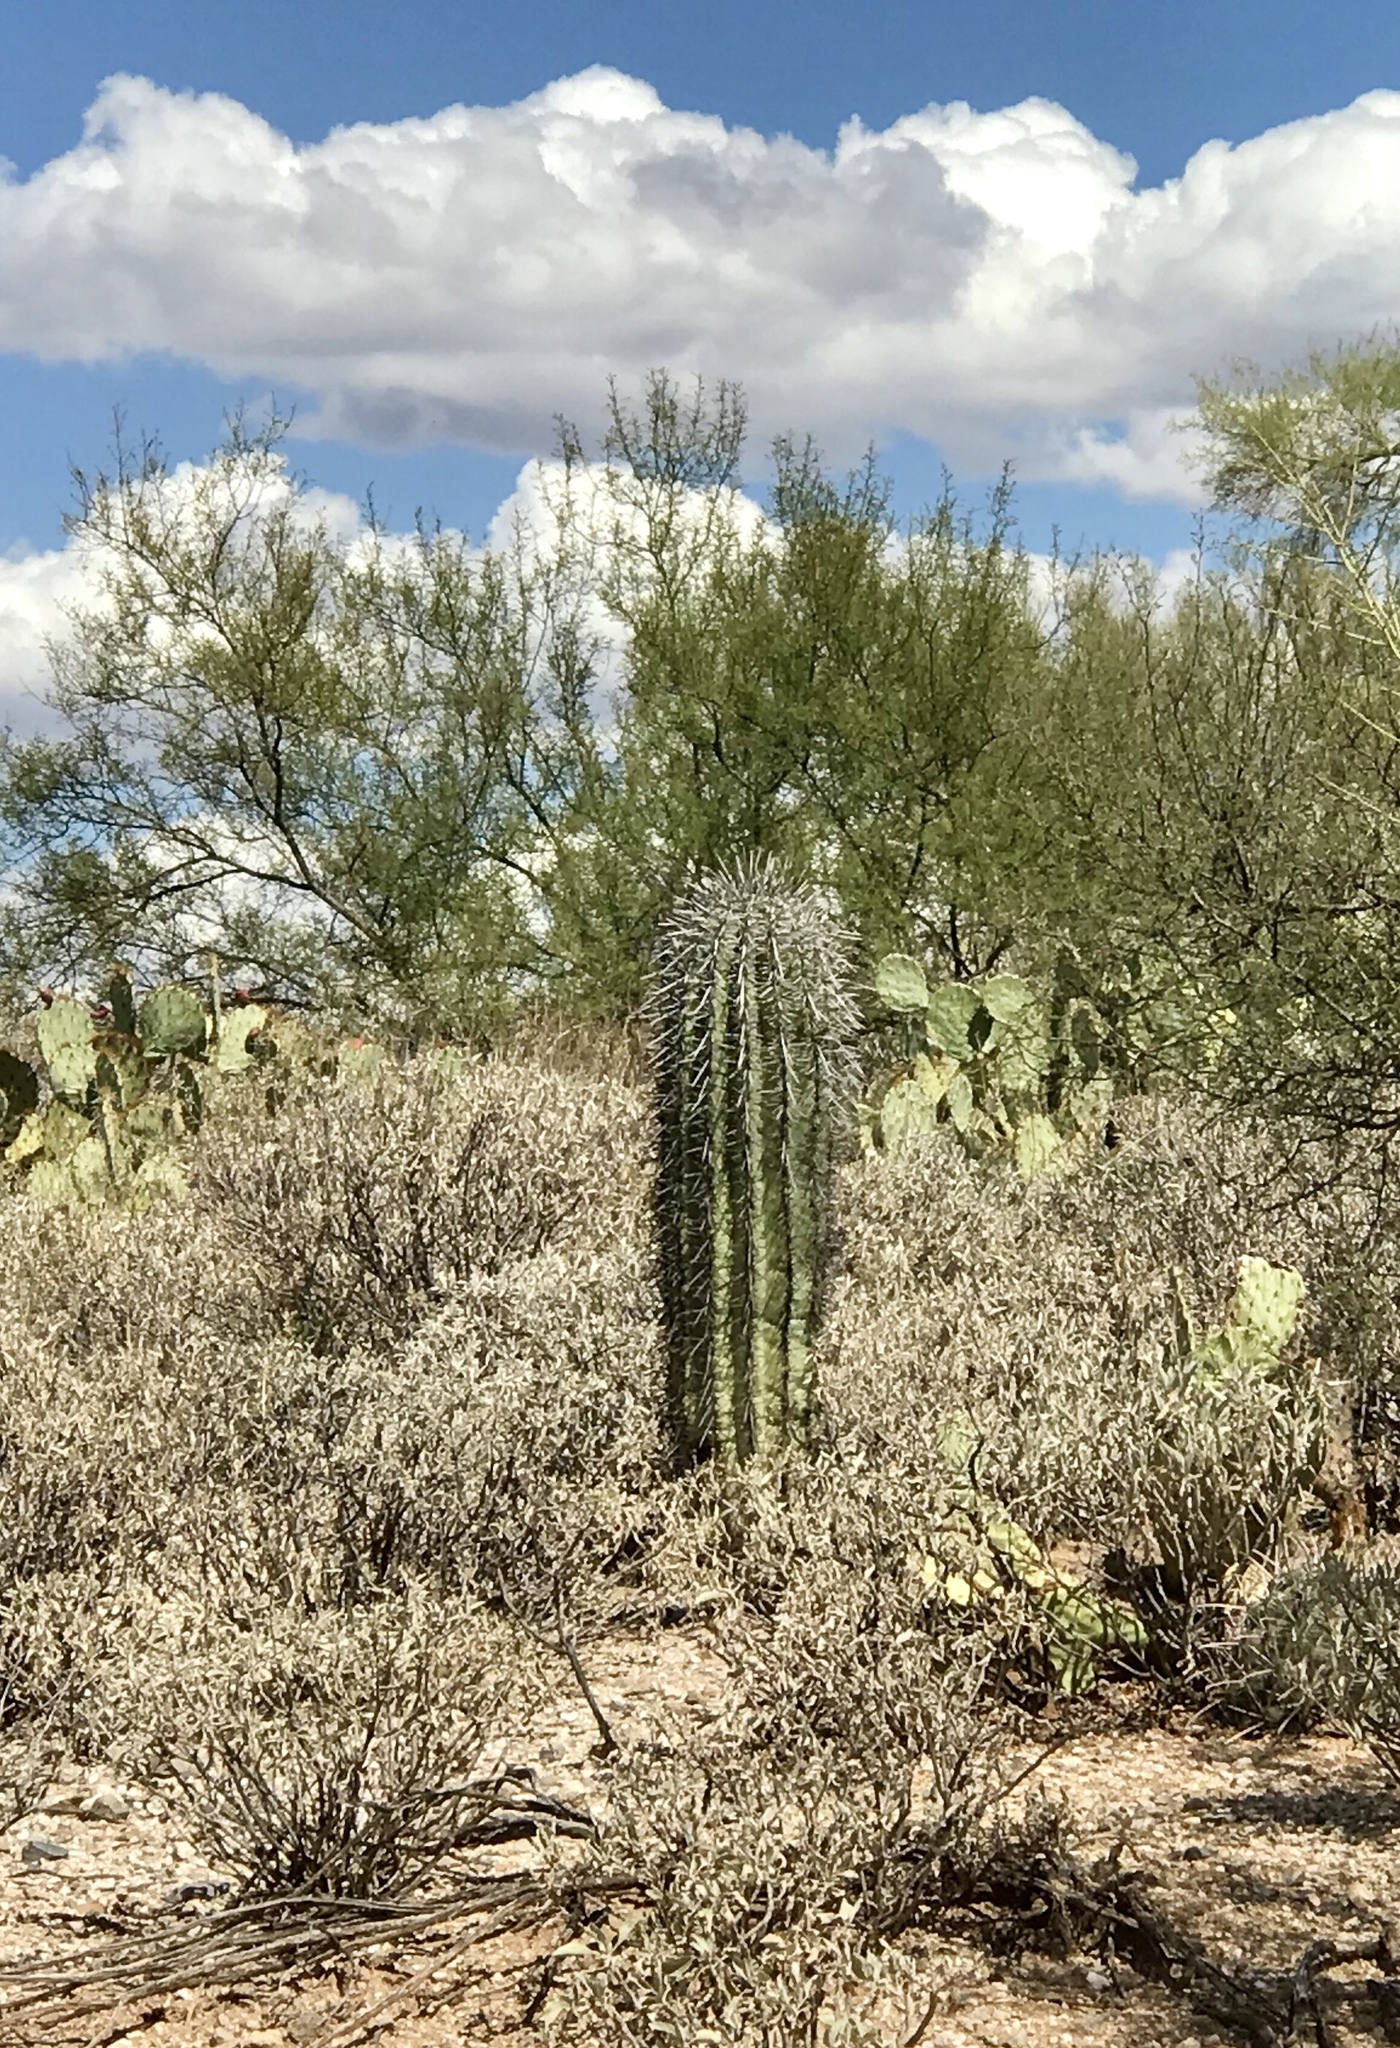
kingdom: Plantae
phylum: Tracheophyta
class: Magnoliopsida
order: Caryophyllales
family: Cactaceae
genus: Carnegiea
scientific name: Carnegiea gigantea
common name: Saguaro
